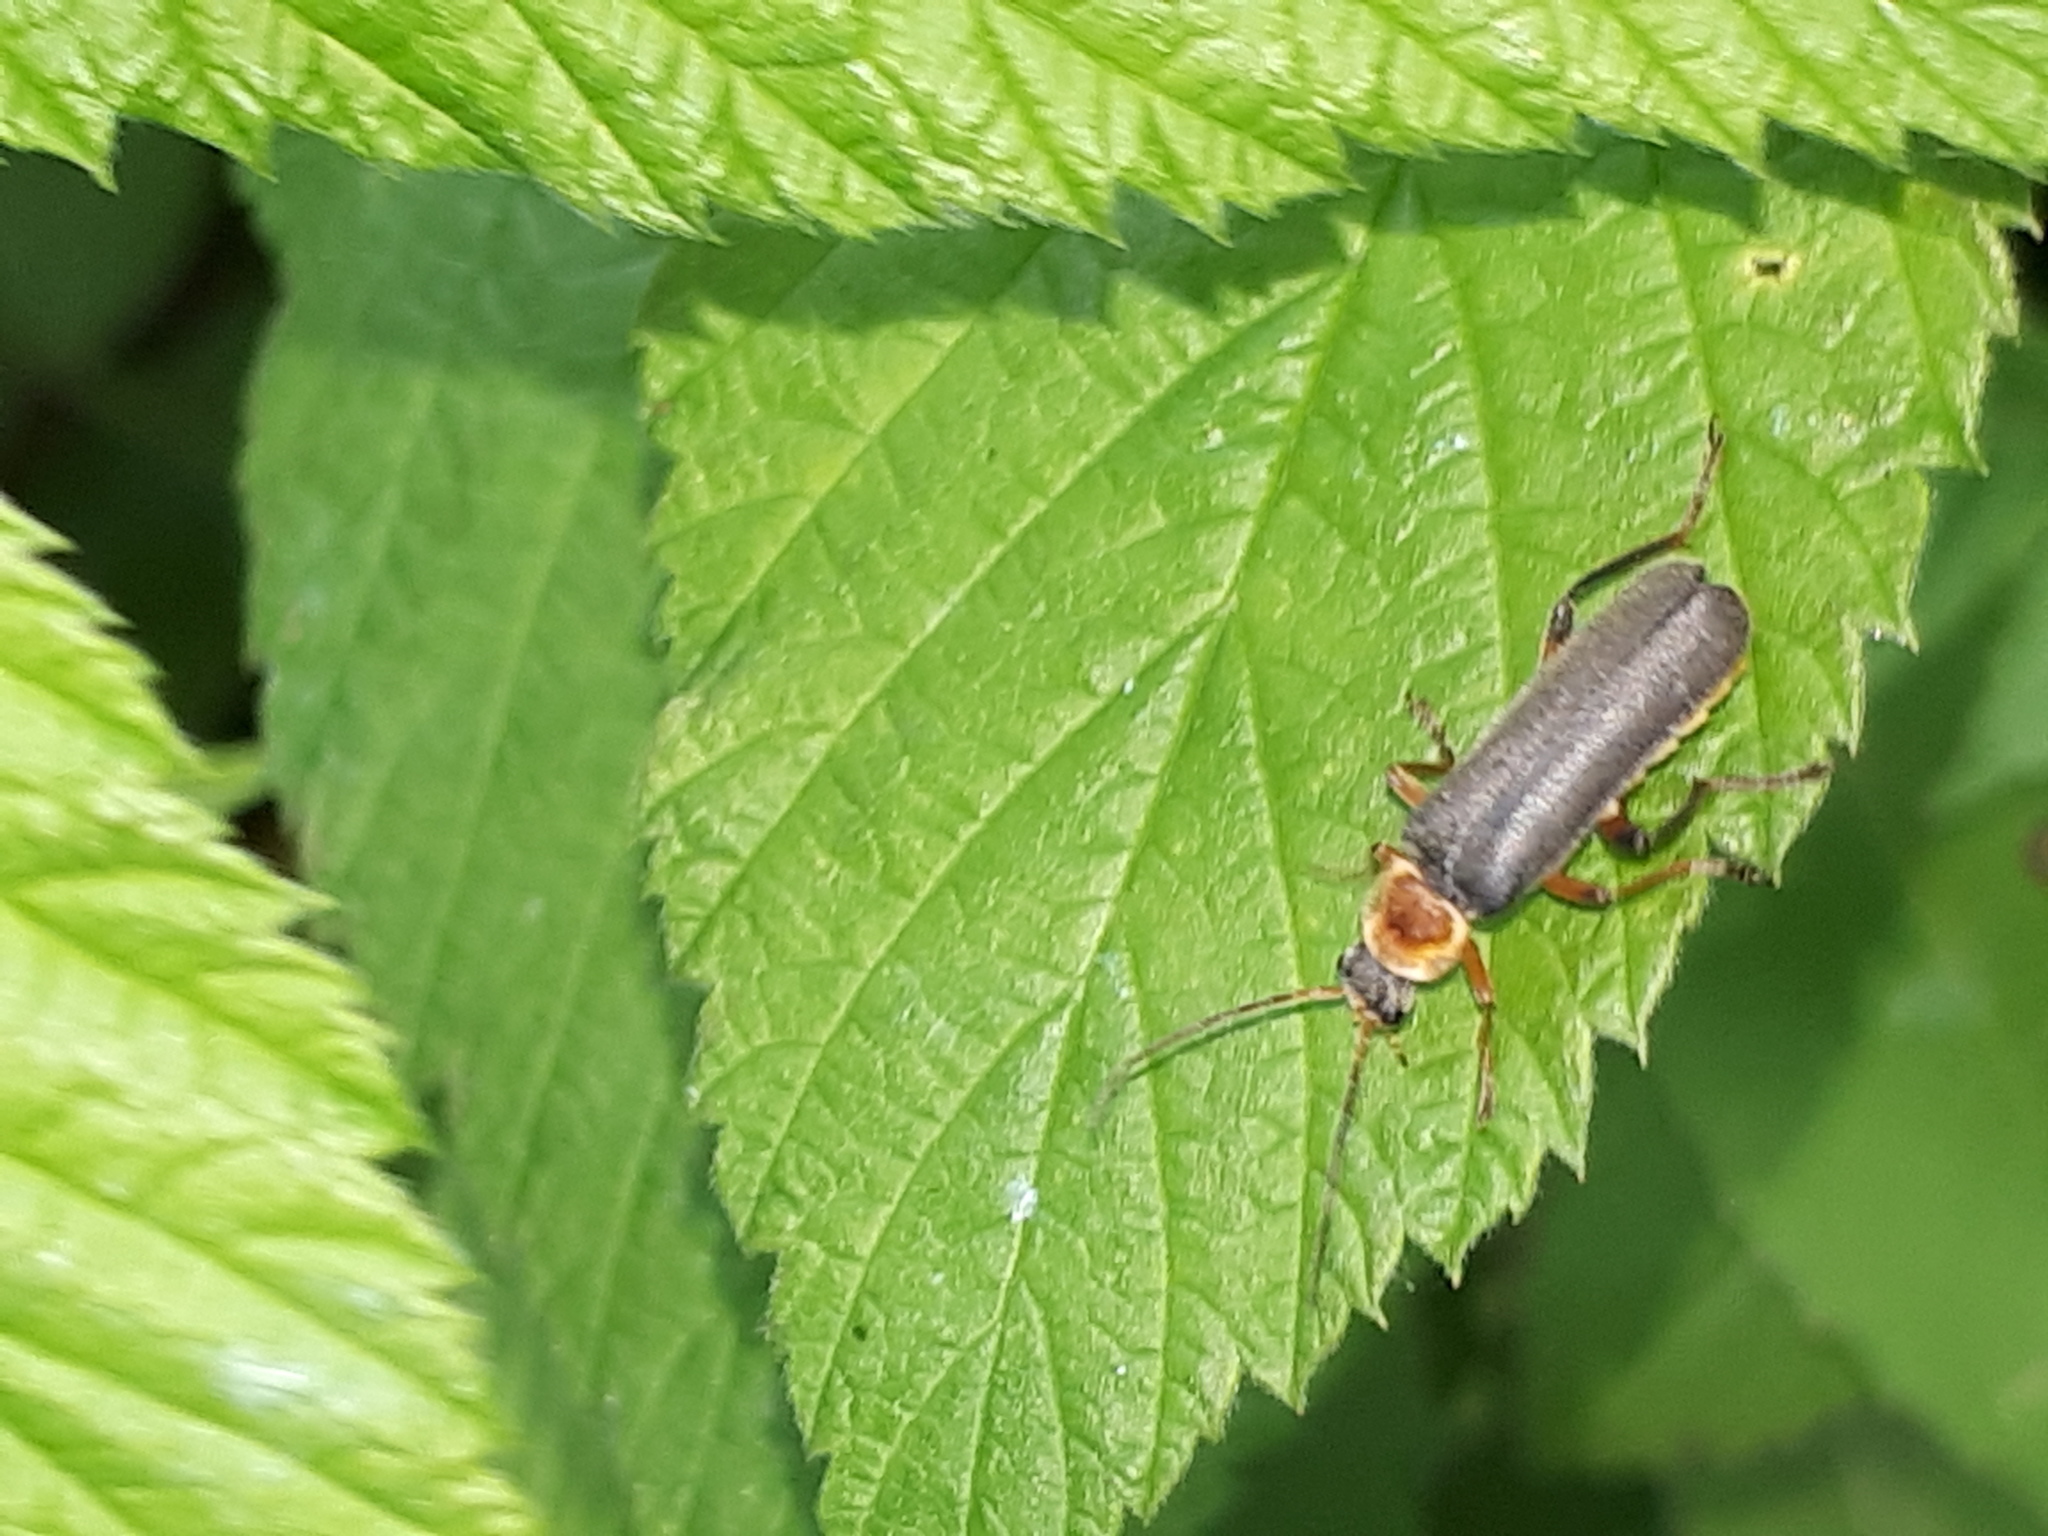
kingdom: Animalia
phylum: Arthropoda
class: Insecta
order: Coleoptera
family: Cantharidae
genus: Cantharis
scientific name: Cantharis nigricans
